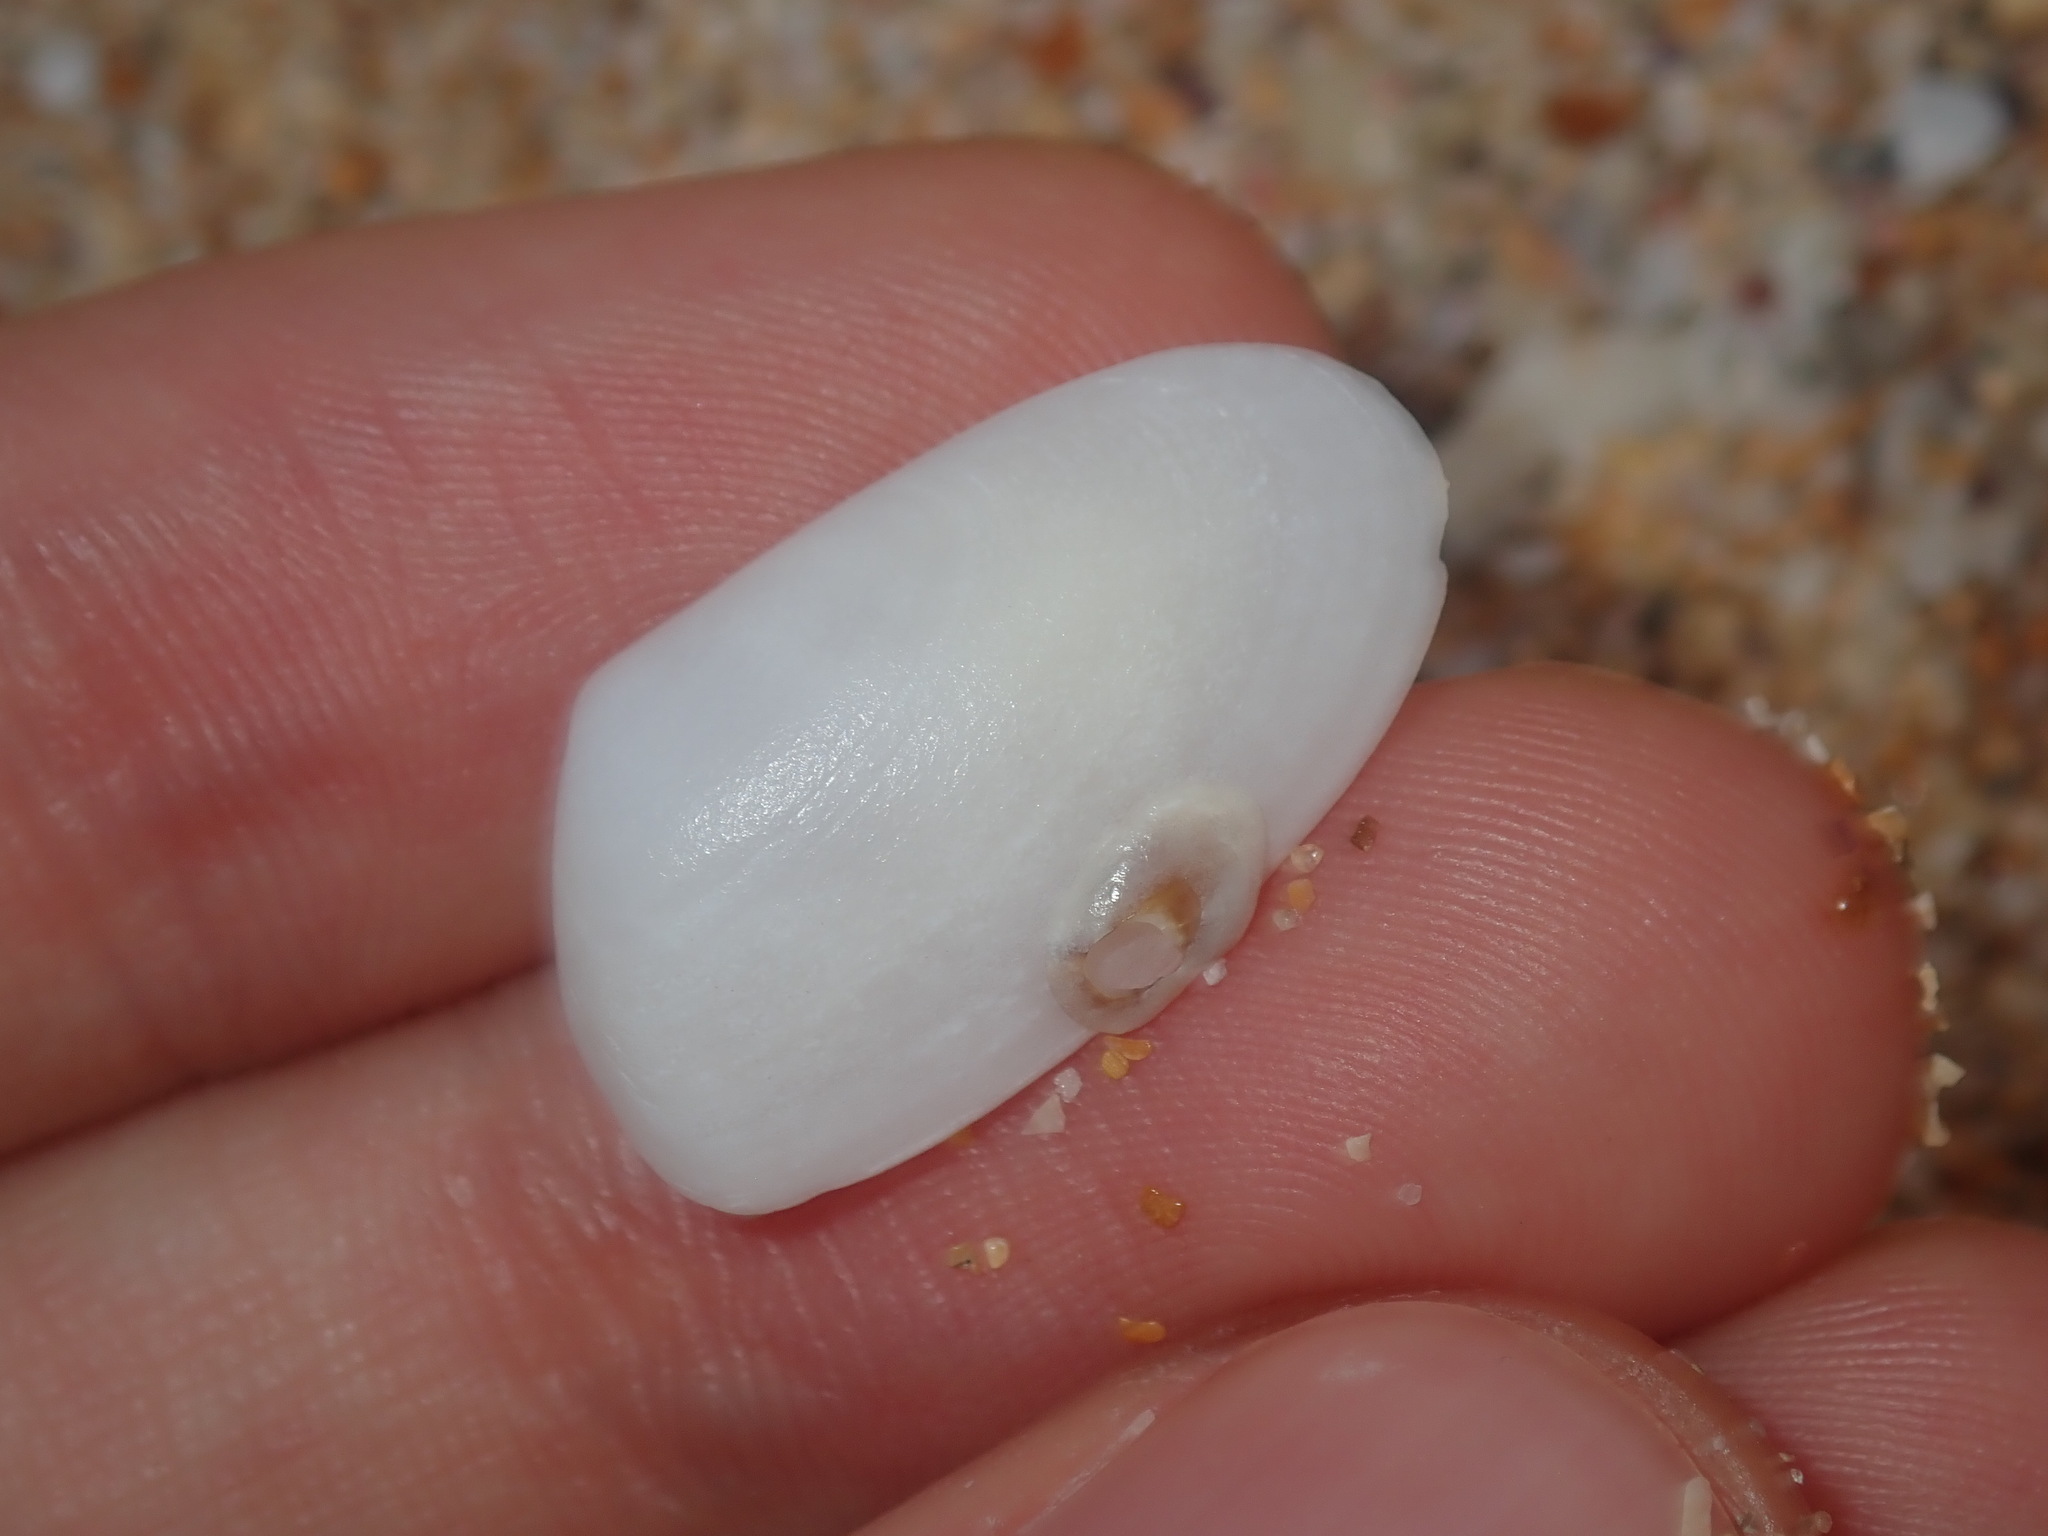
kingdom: Animalia
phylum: Mollusca
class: Bivalvia
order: Venerida
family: Mesodesmatidae
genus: Paphies
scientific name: Paphies angusta
